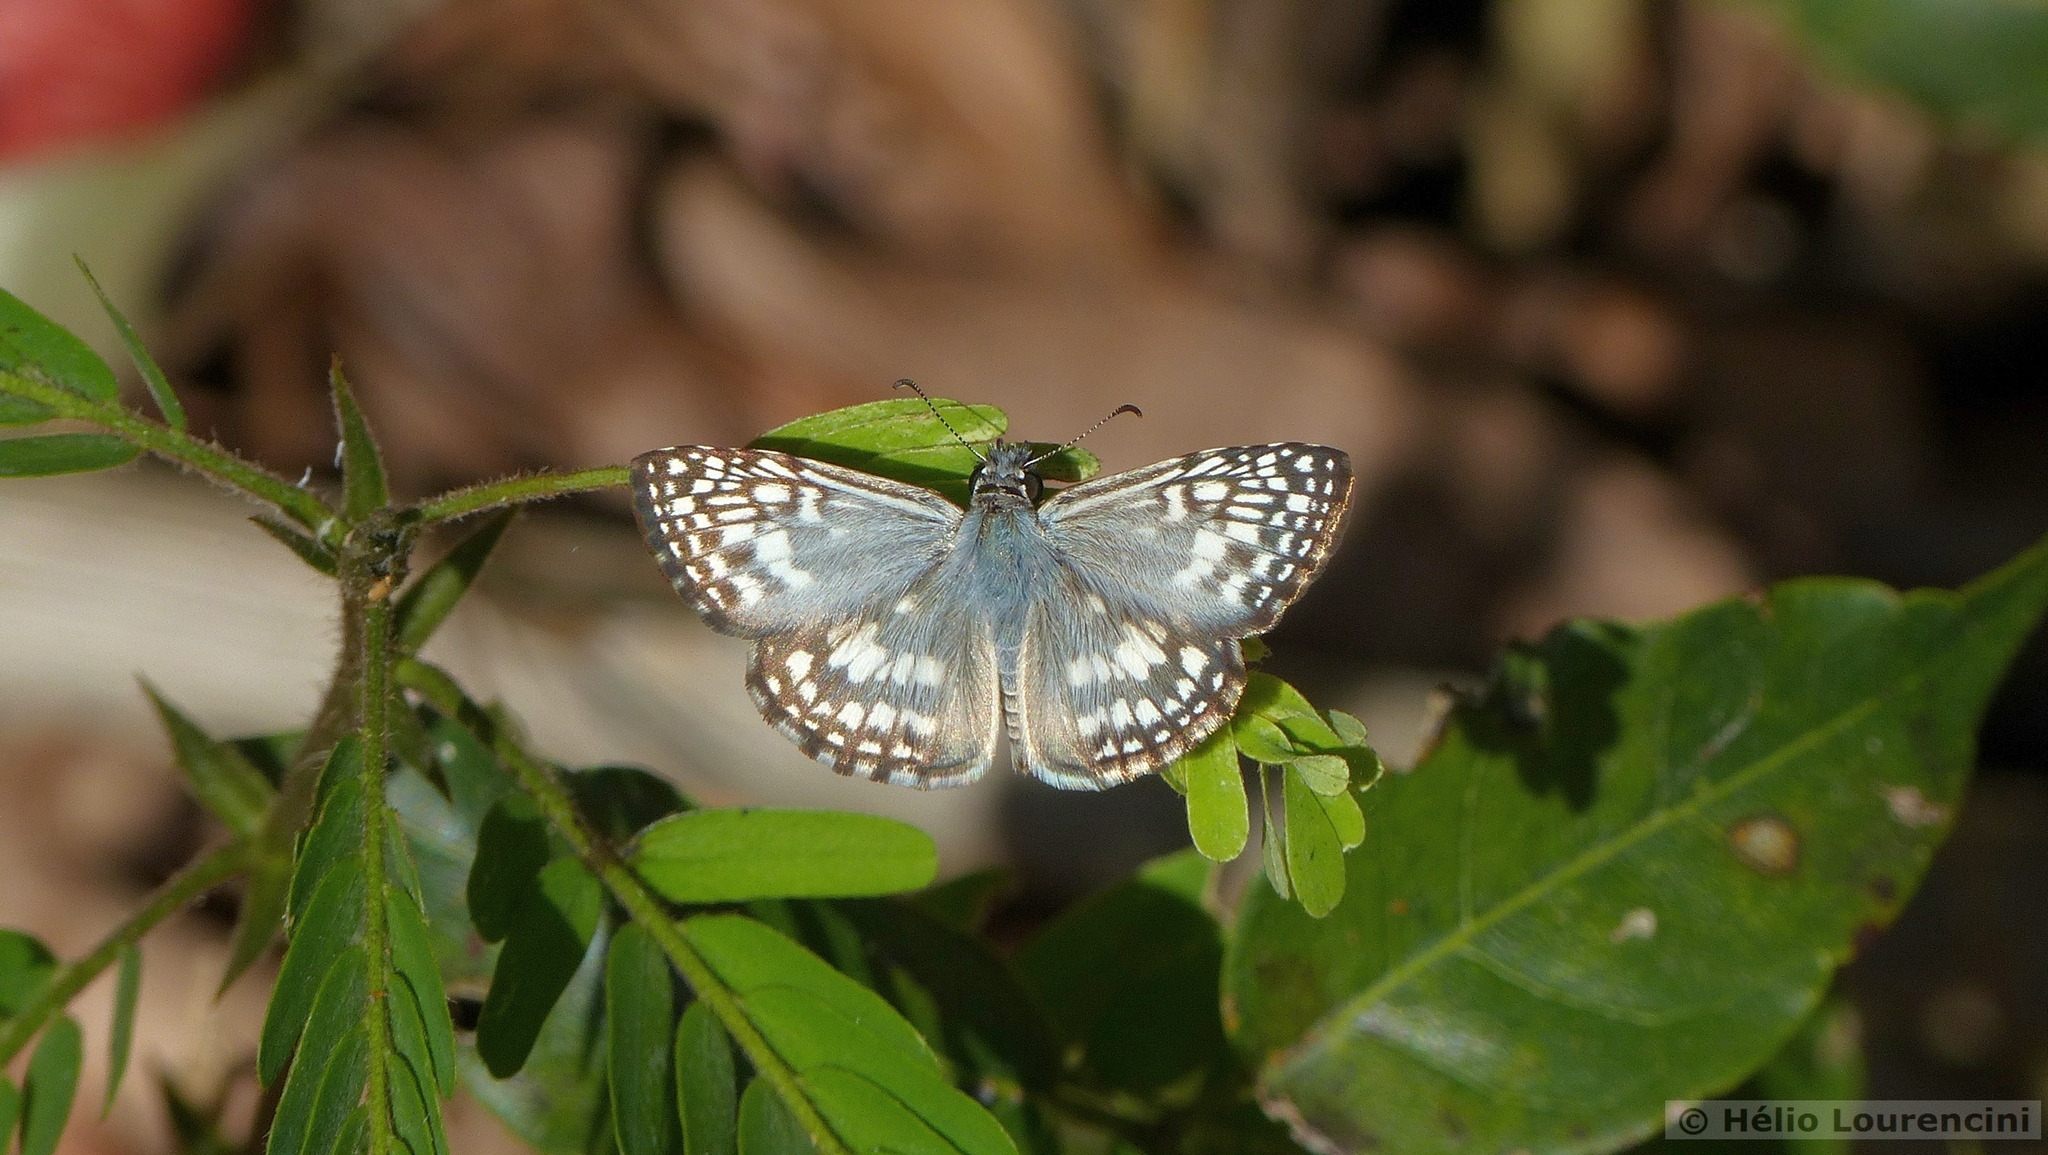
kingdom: Animalia
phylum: Arthropoda
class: Insecta
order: Lepidoptera
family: Hesperiidae
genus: Pyrgus
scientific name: Pyrgus oileus
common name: Tropical checkered-skipper
